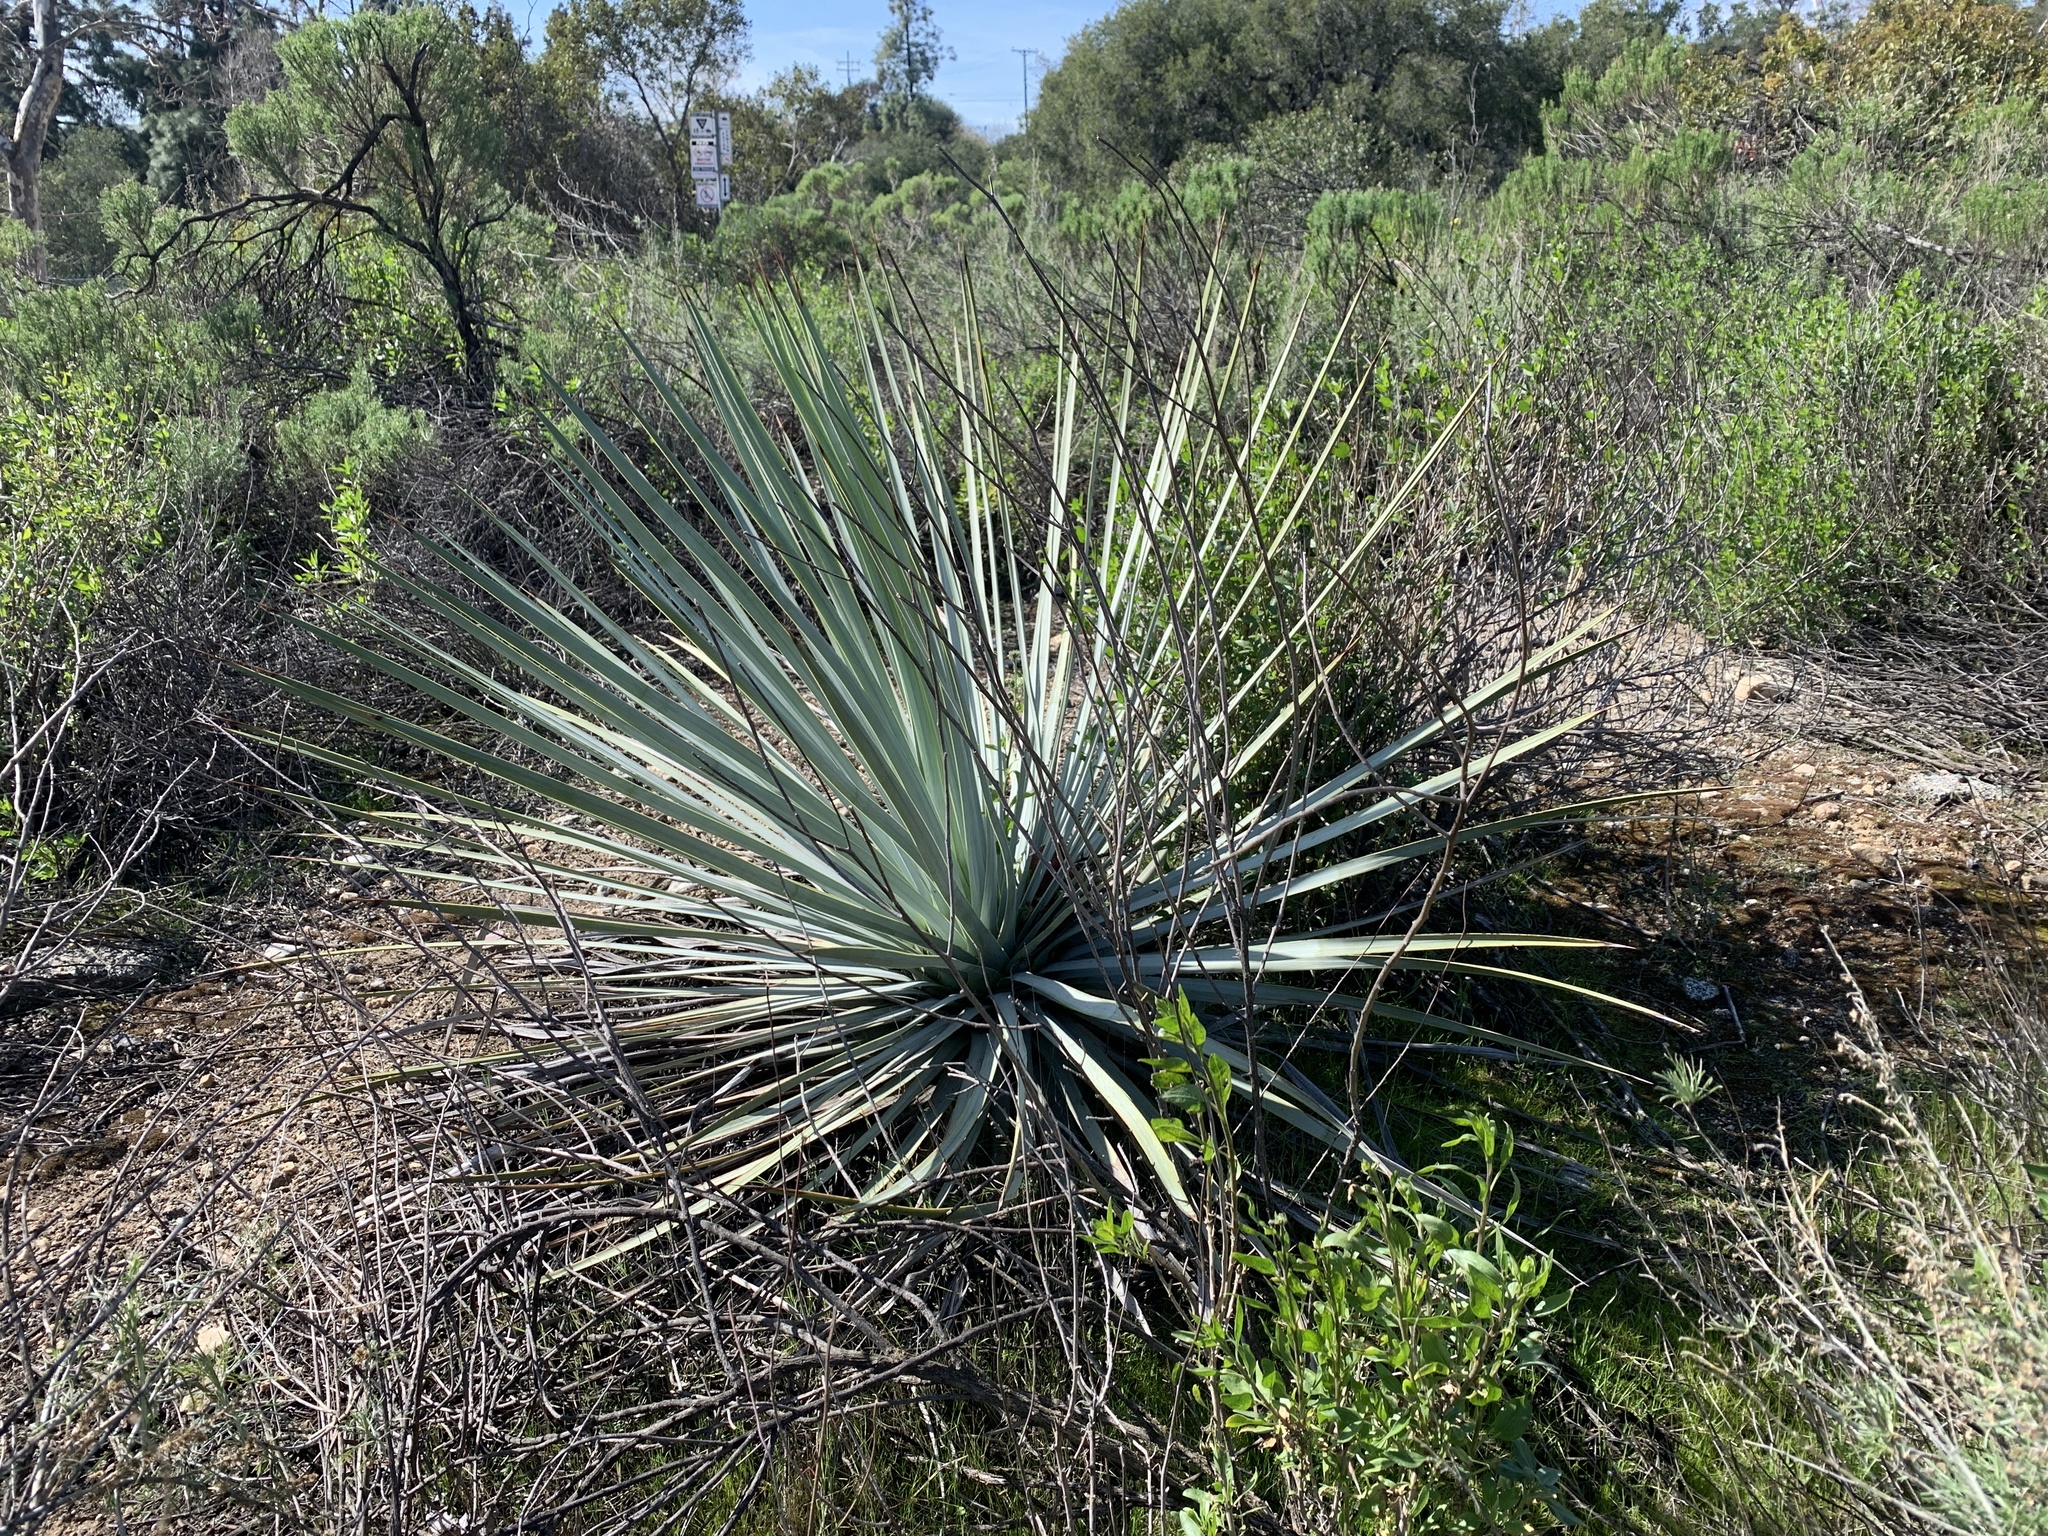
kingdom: Plantae
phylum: Tracheophyta
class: Liliopsida
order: Asparagales
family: Asparagaceae
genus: Hesperoyucca
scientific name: Hesperoyucca whipplei
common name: Our lord's-candle
